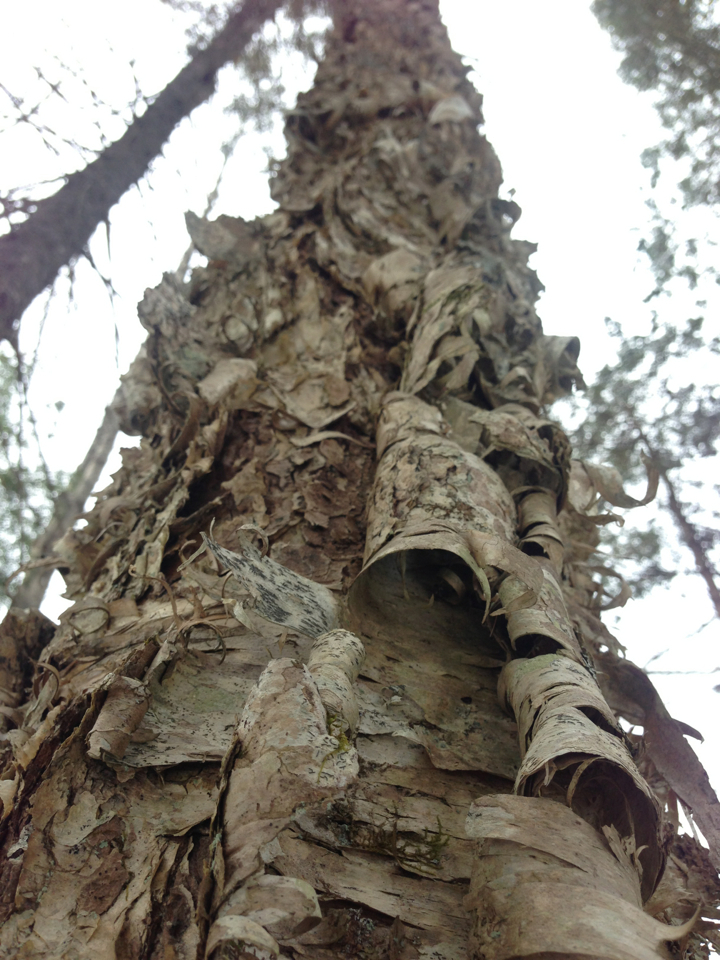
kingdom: Plantae
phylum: Tracheophyta
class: Magnoliopsida
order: Fagales
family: Betulaceae
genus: Betula
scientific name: Betula
